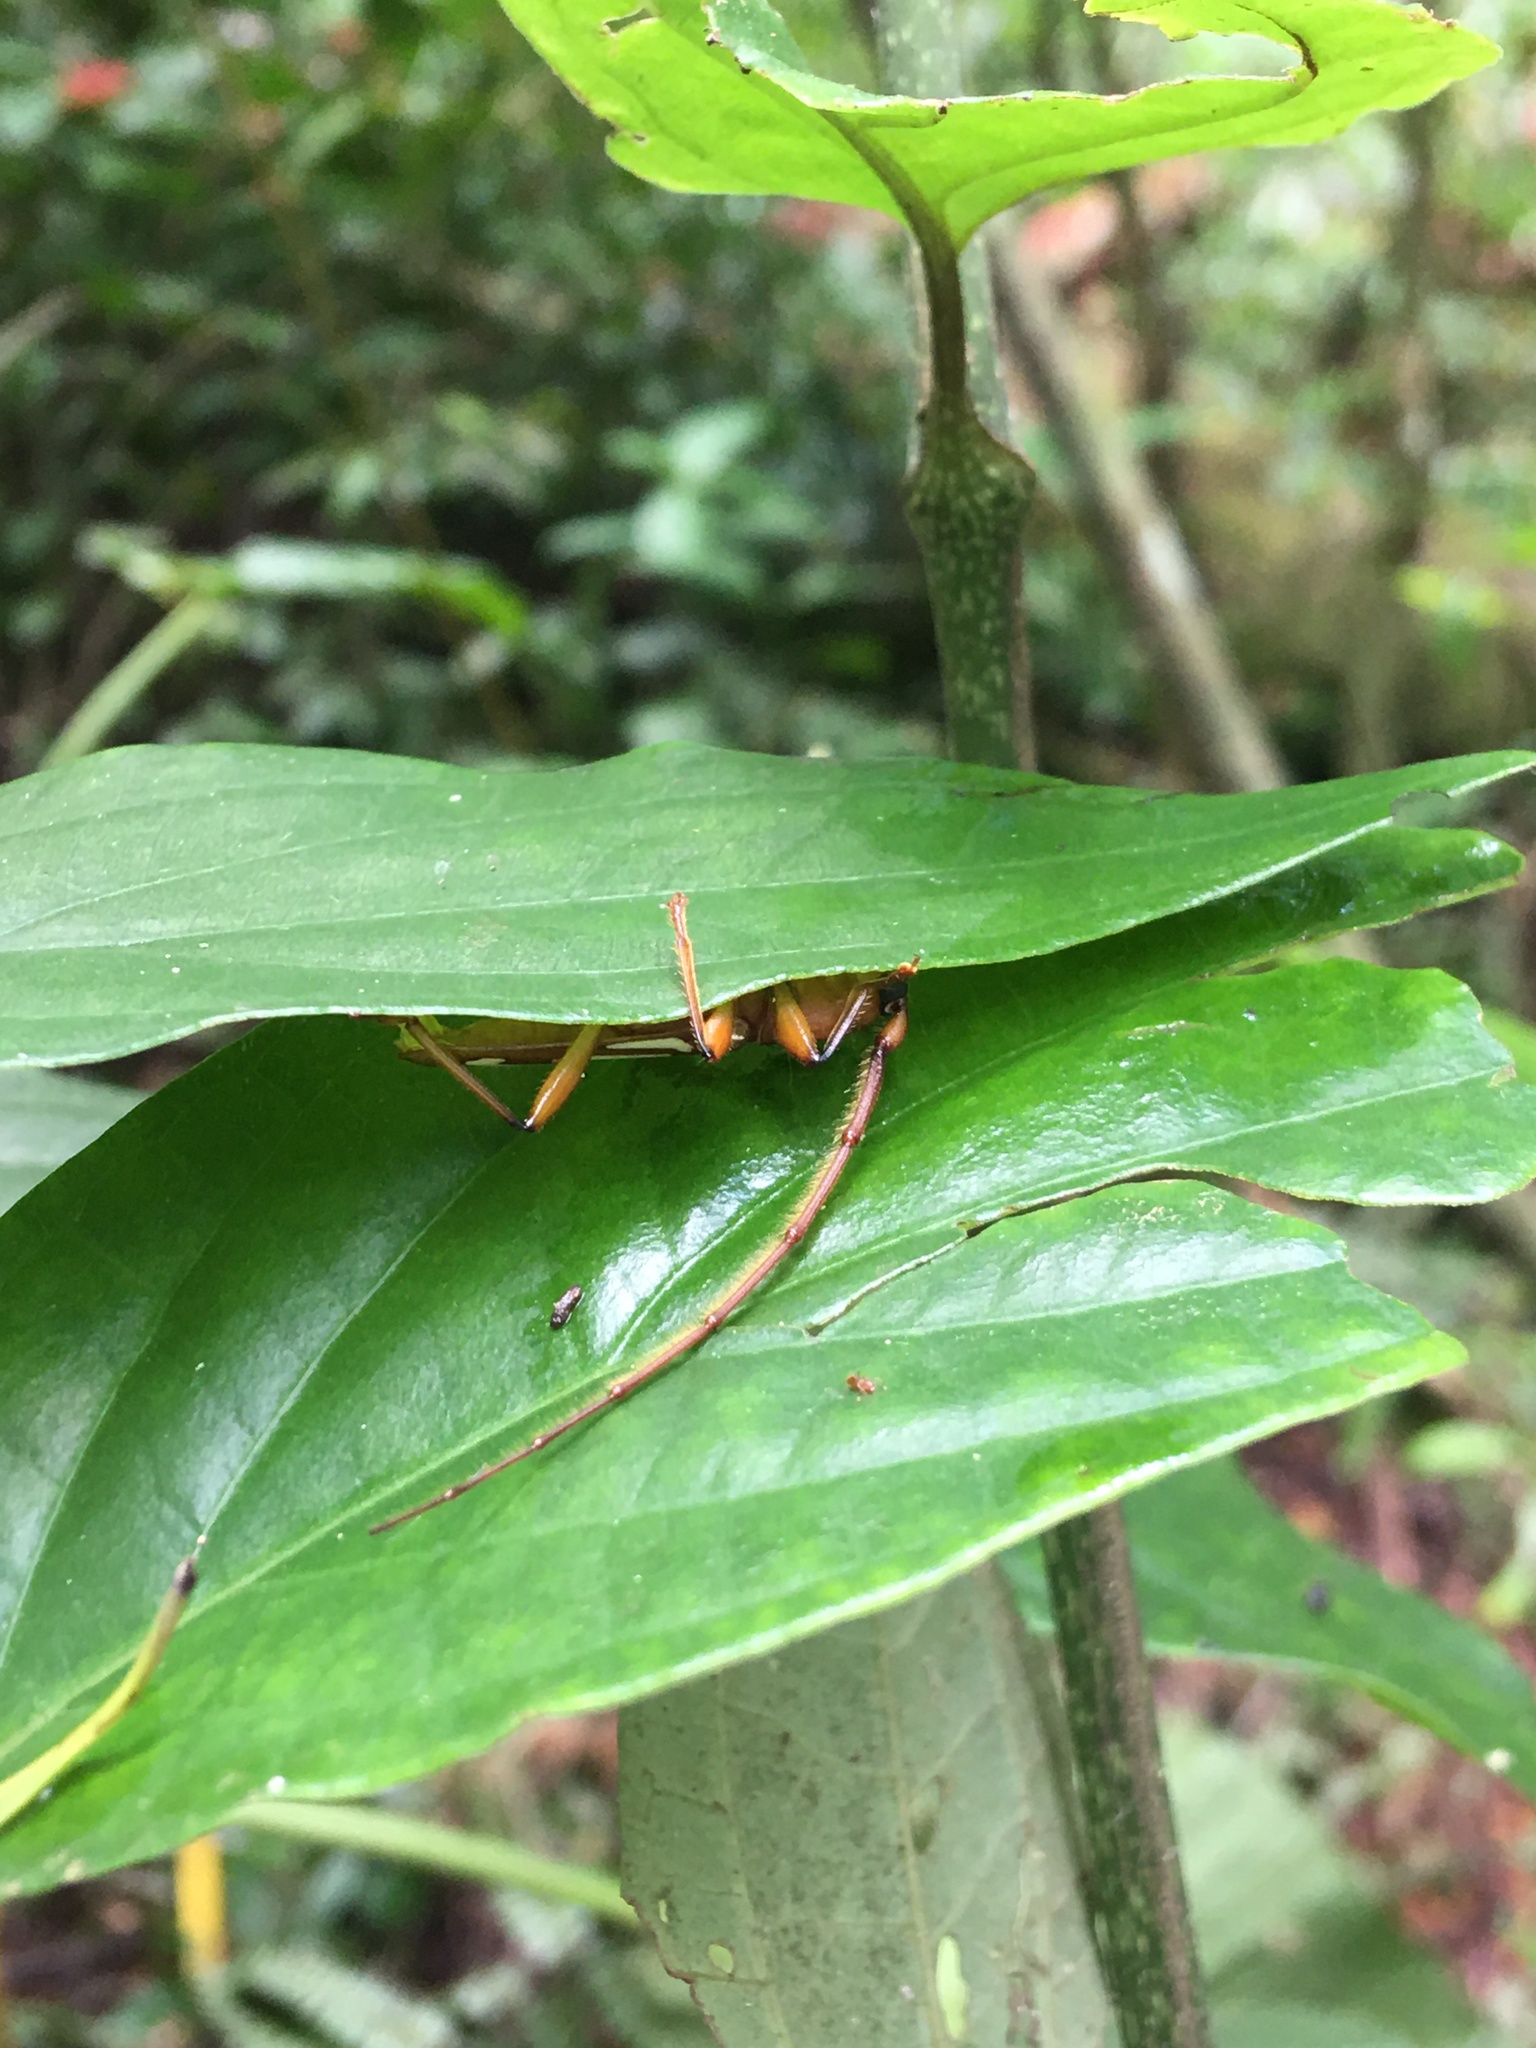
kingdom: Animalia
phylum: Arthropoda
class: Insecta
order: Coleoptera
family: Cerambycidae
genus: Eurymerus
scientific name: Eurymerus eburioides
